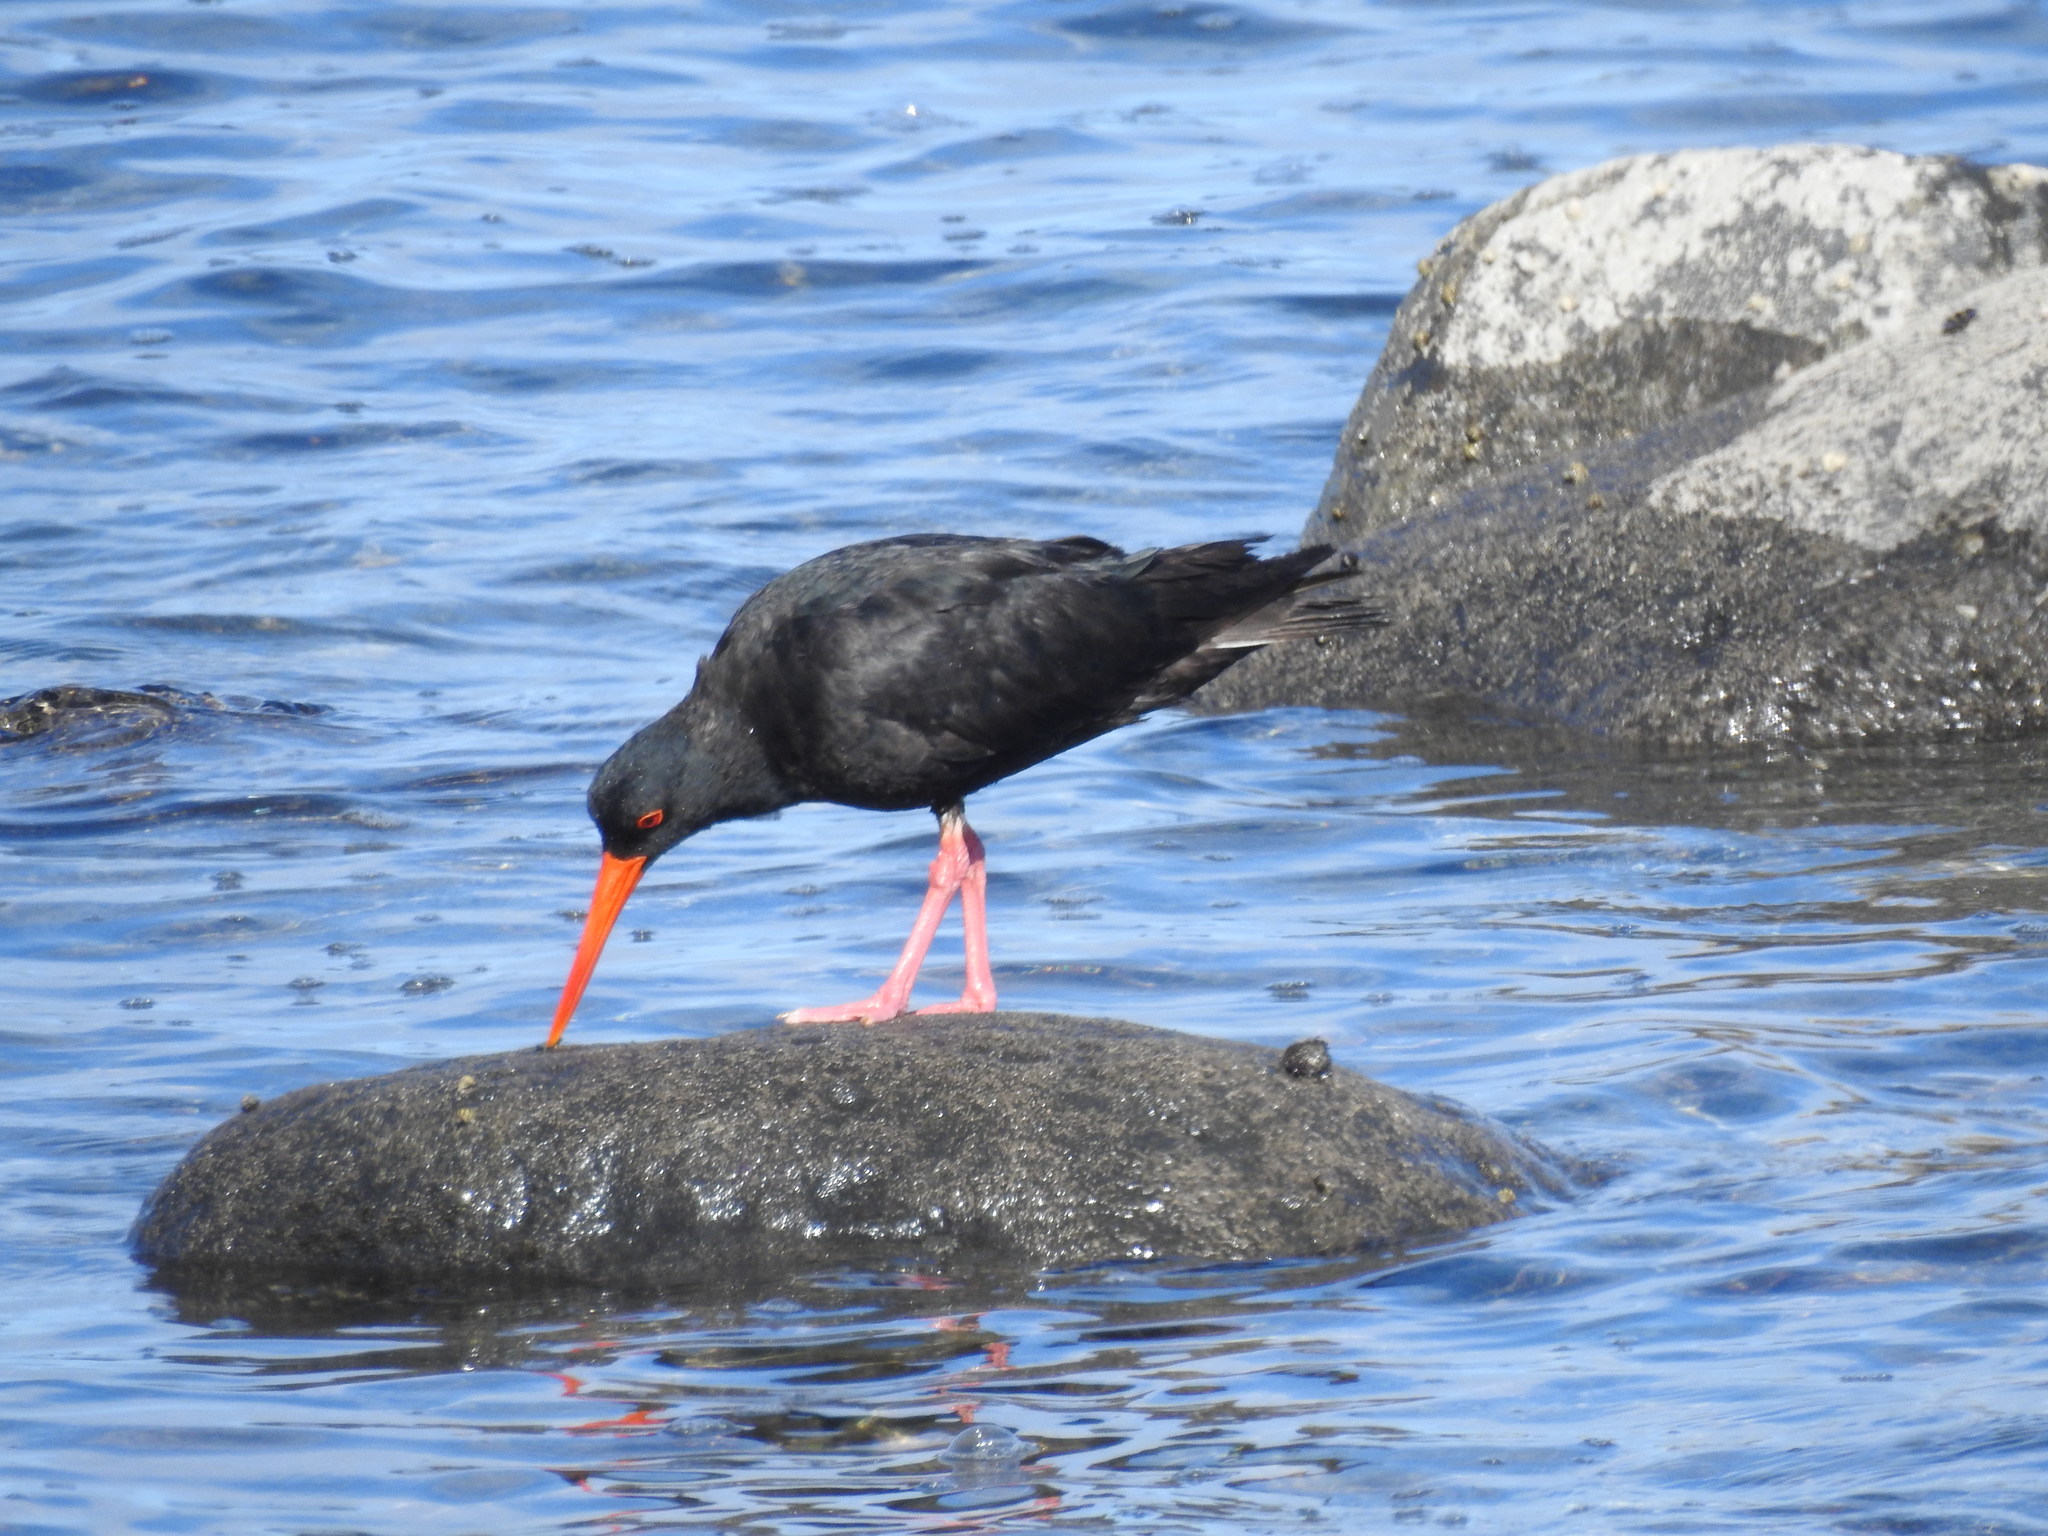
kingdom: Animalia
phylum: Chordata
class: Aves
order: Charadriiformes
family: Haematopodidae
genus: Haematopus
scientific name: Haematopus unicolor
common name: Variable oystercatcher
